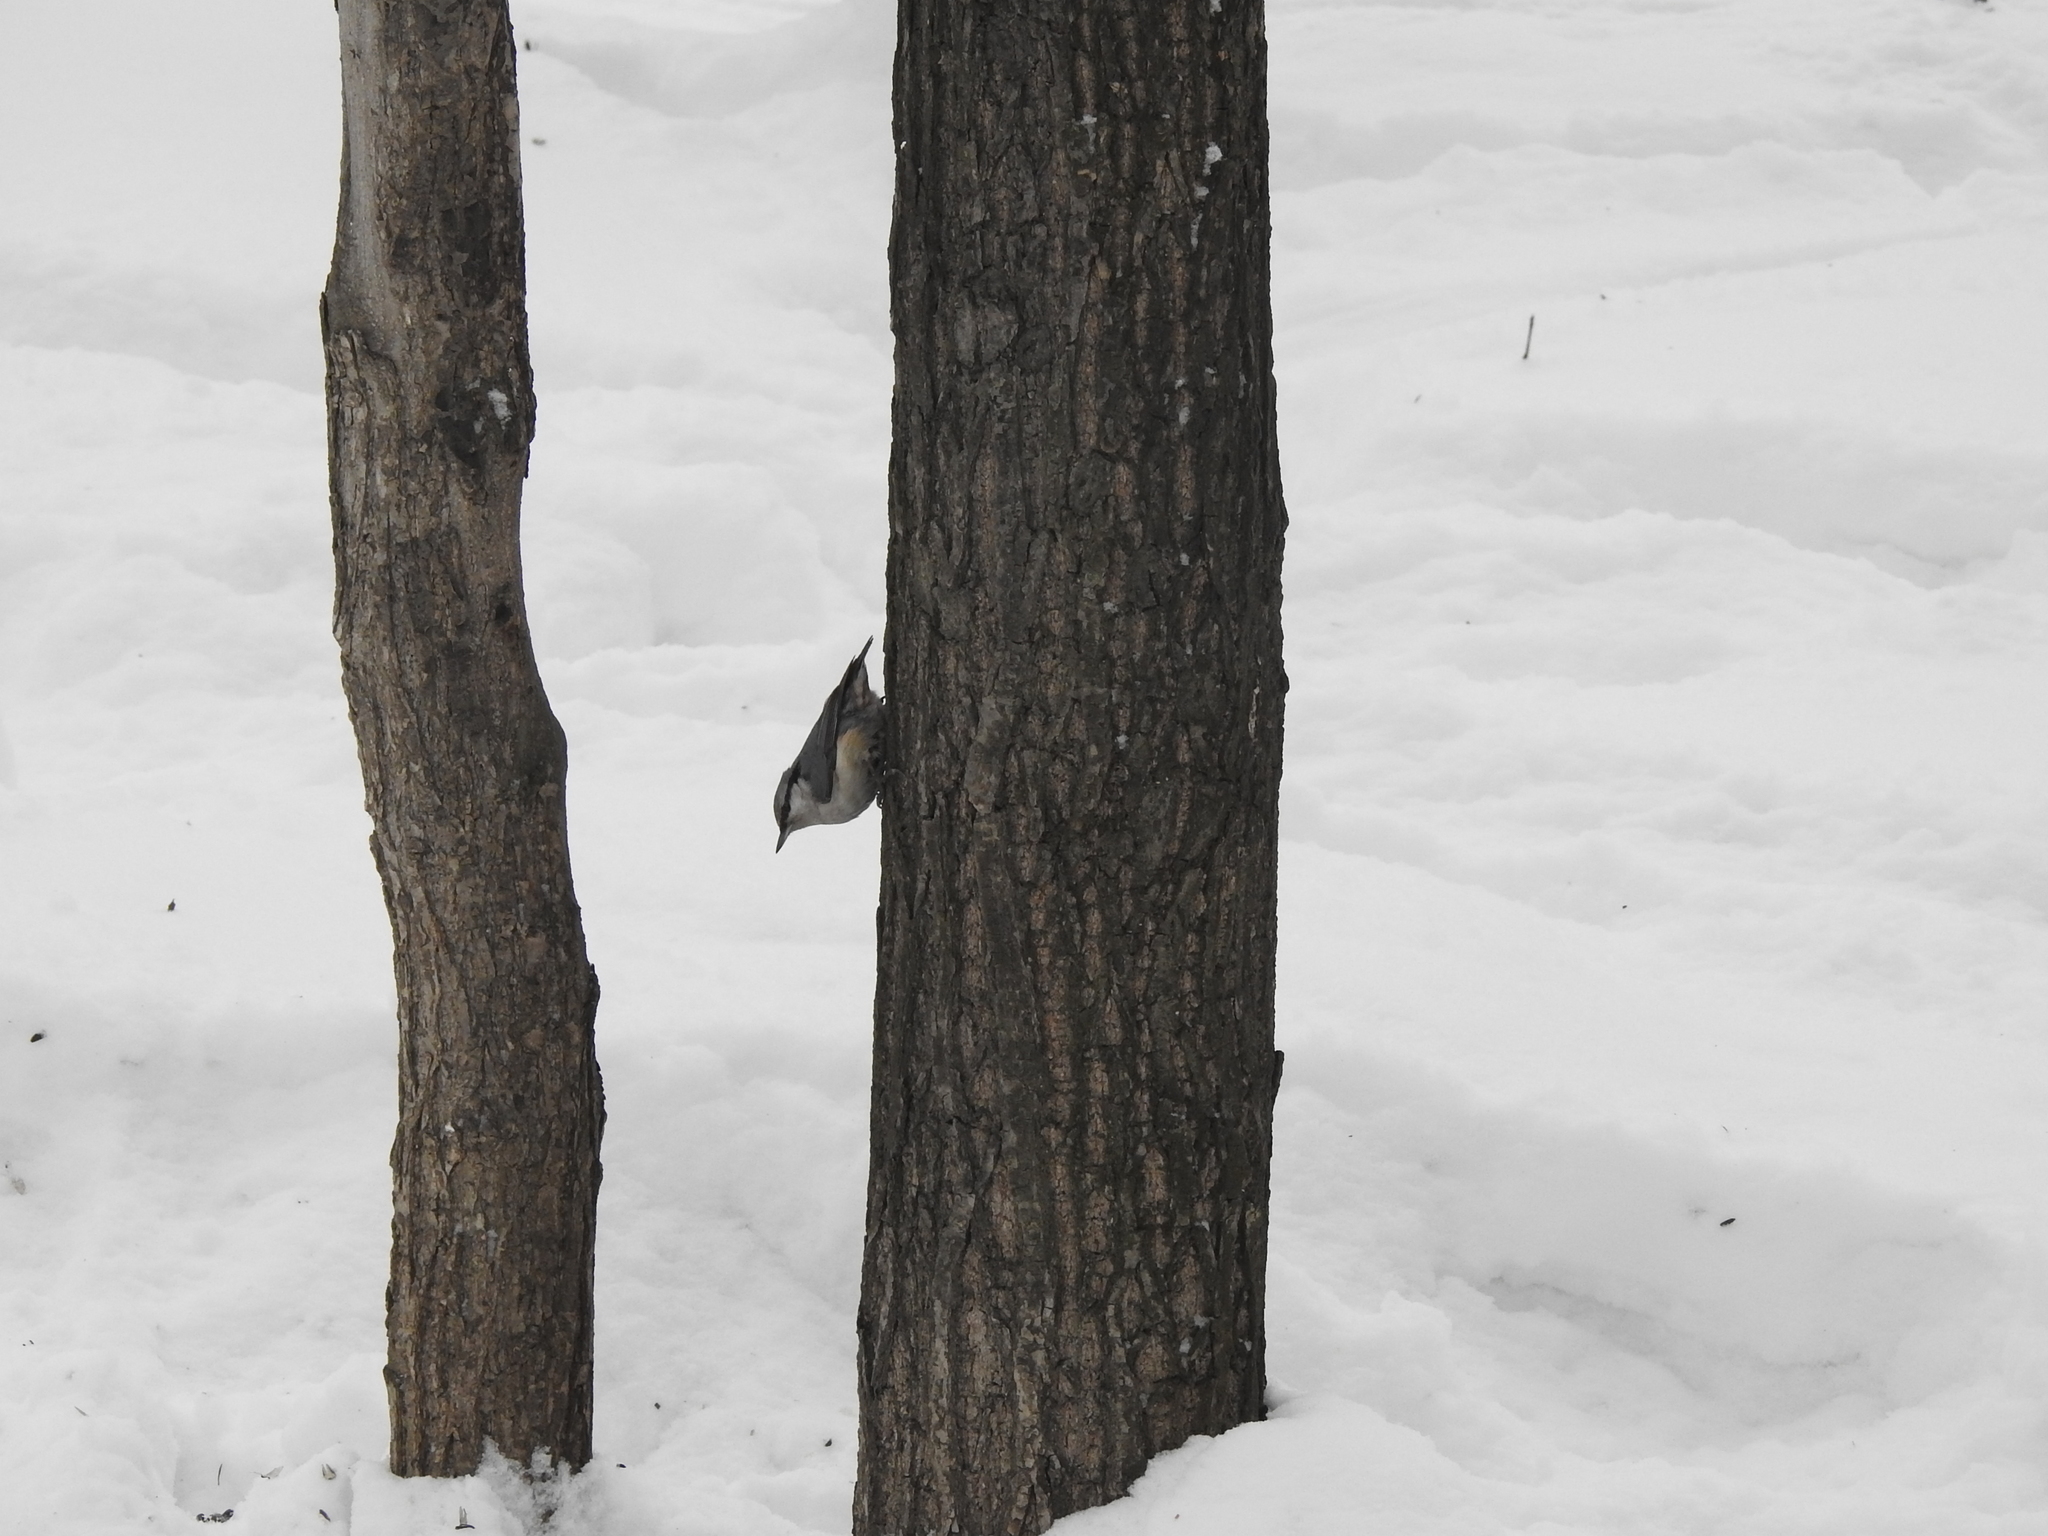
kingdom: Animalia
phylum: Chordata
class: Aves
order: Passeriformes
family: Sittidae
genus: Sitta
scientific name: Sitta europaea
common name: Eurasian nuthatch
